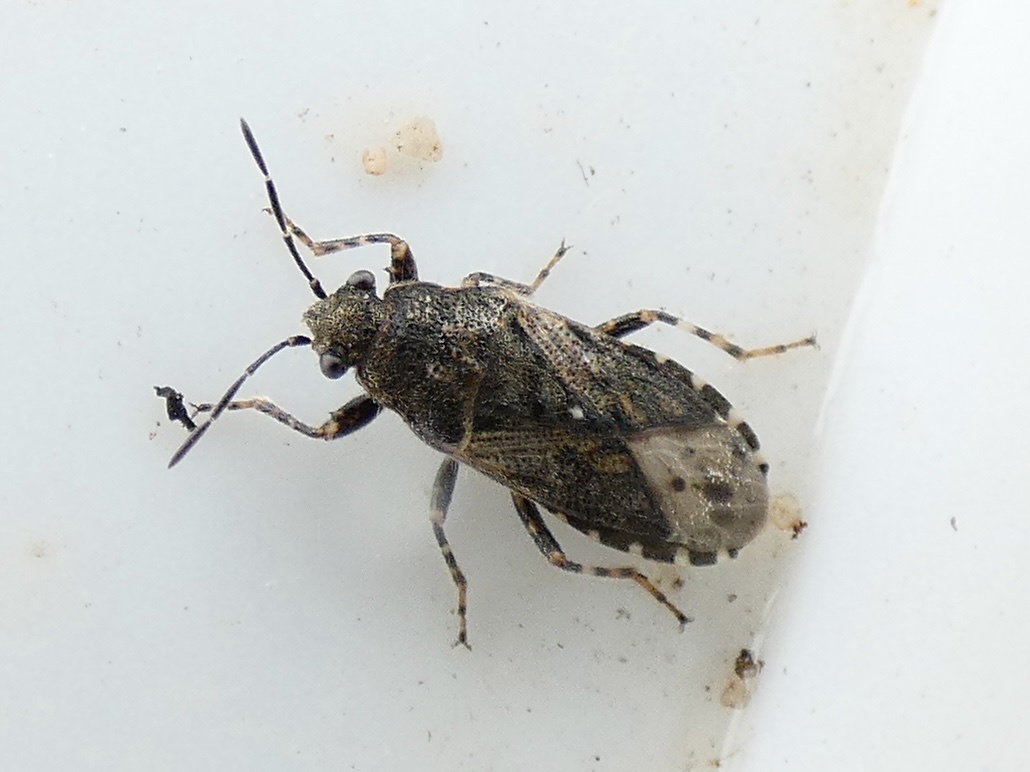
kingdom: Animalia
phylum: Arthropoda
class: Insecta
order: Hemiptera
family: Heterogastridae
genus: Heterogaster
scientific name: Heterogaster urticae
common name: Seed bug
